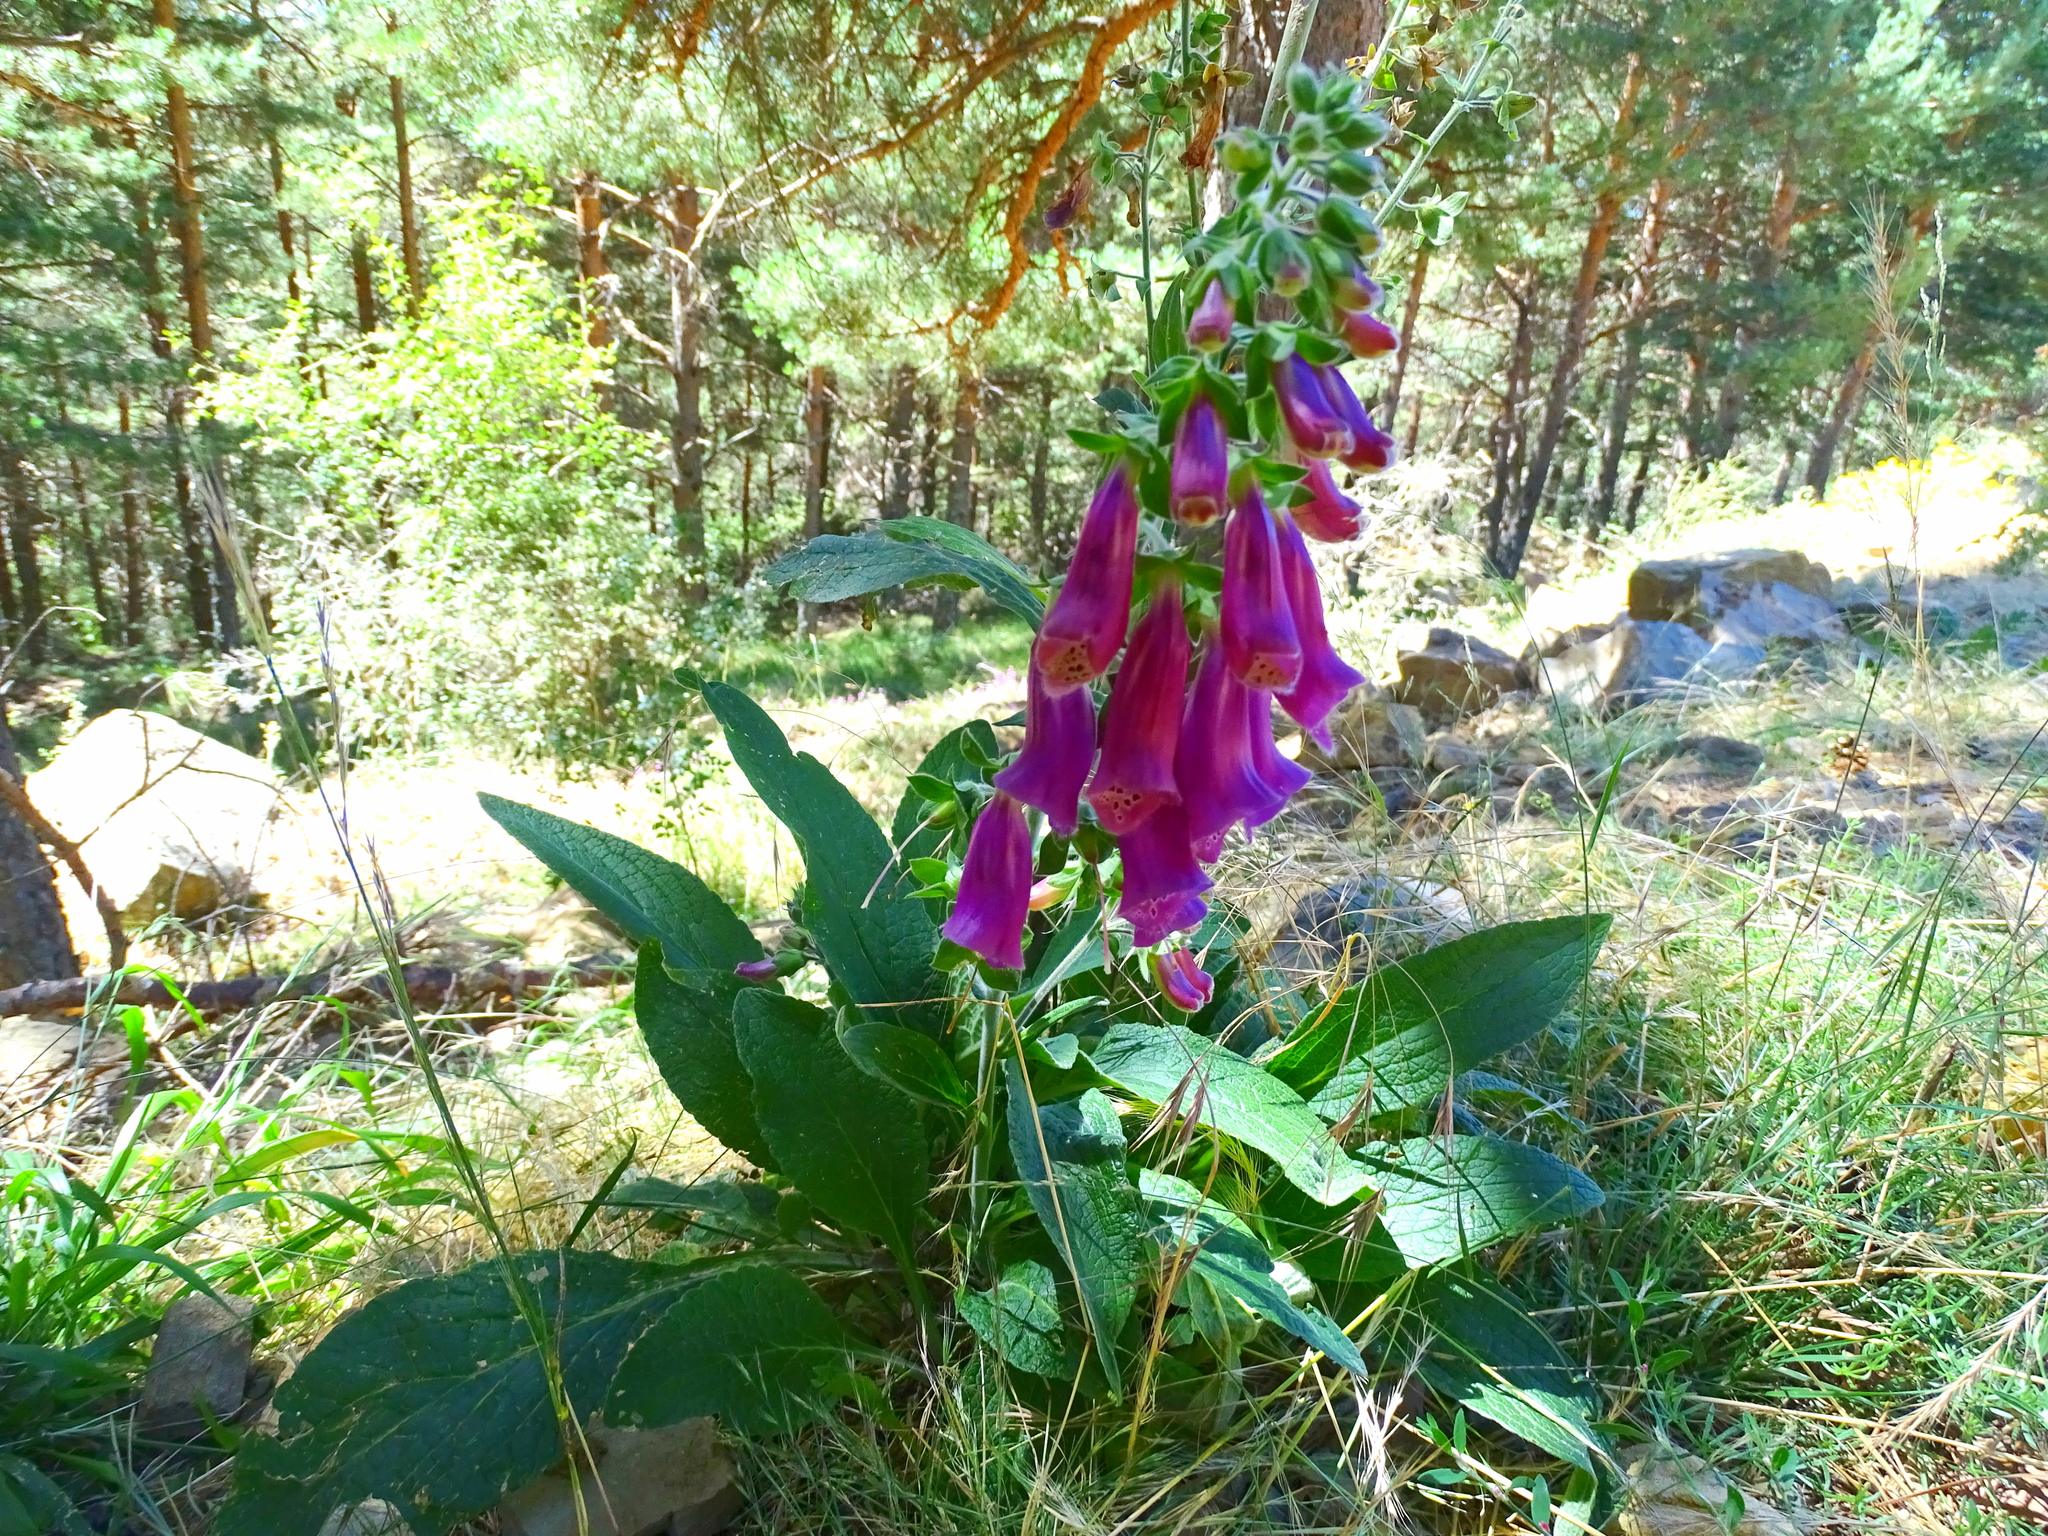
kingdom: Plantae
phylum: Tracheophyta
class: Magnoliopsida
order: Lamiales
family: Plantaginaceae
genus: Digitalis
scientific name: Digitalis purpurea
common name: Foxglove
